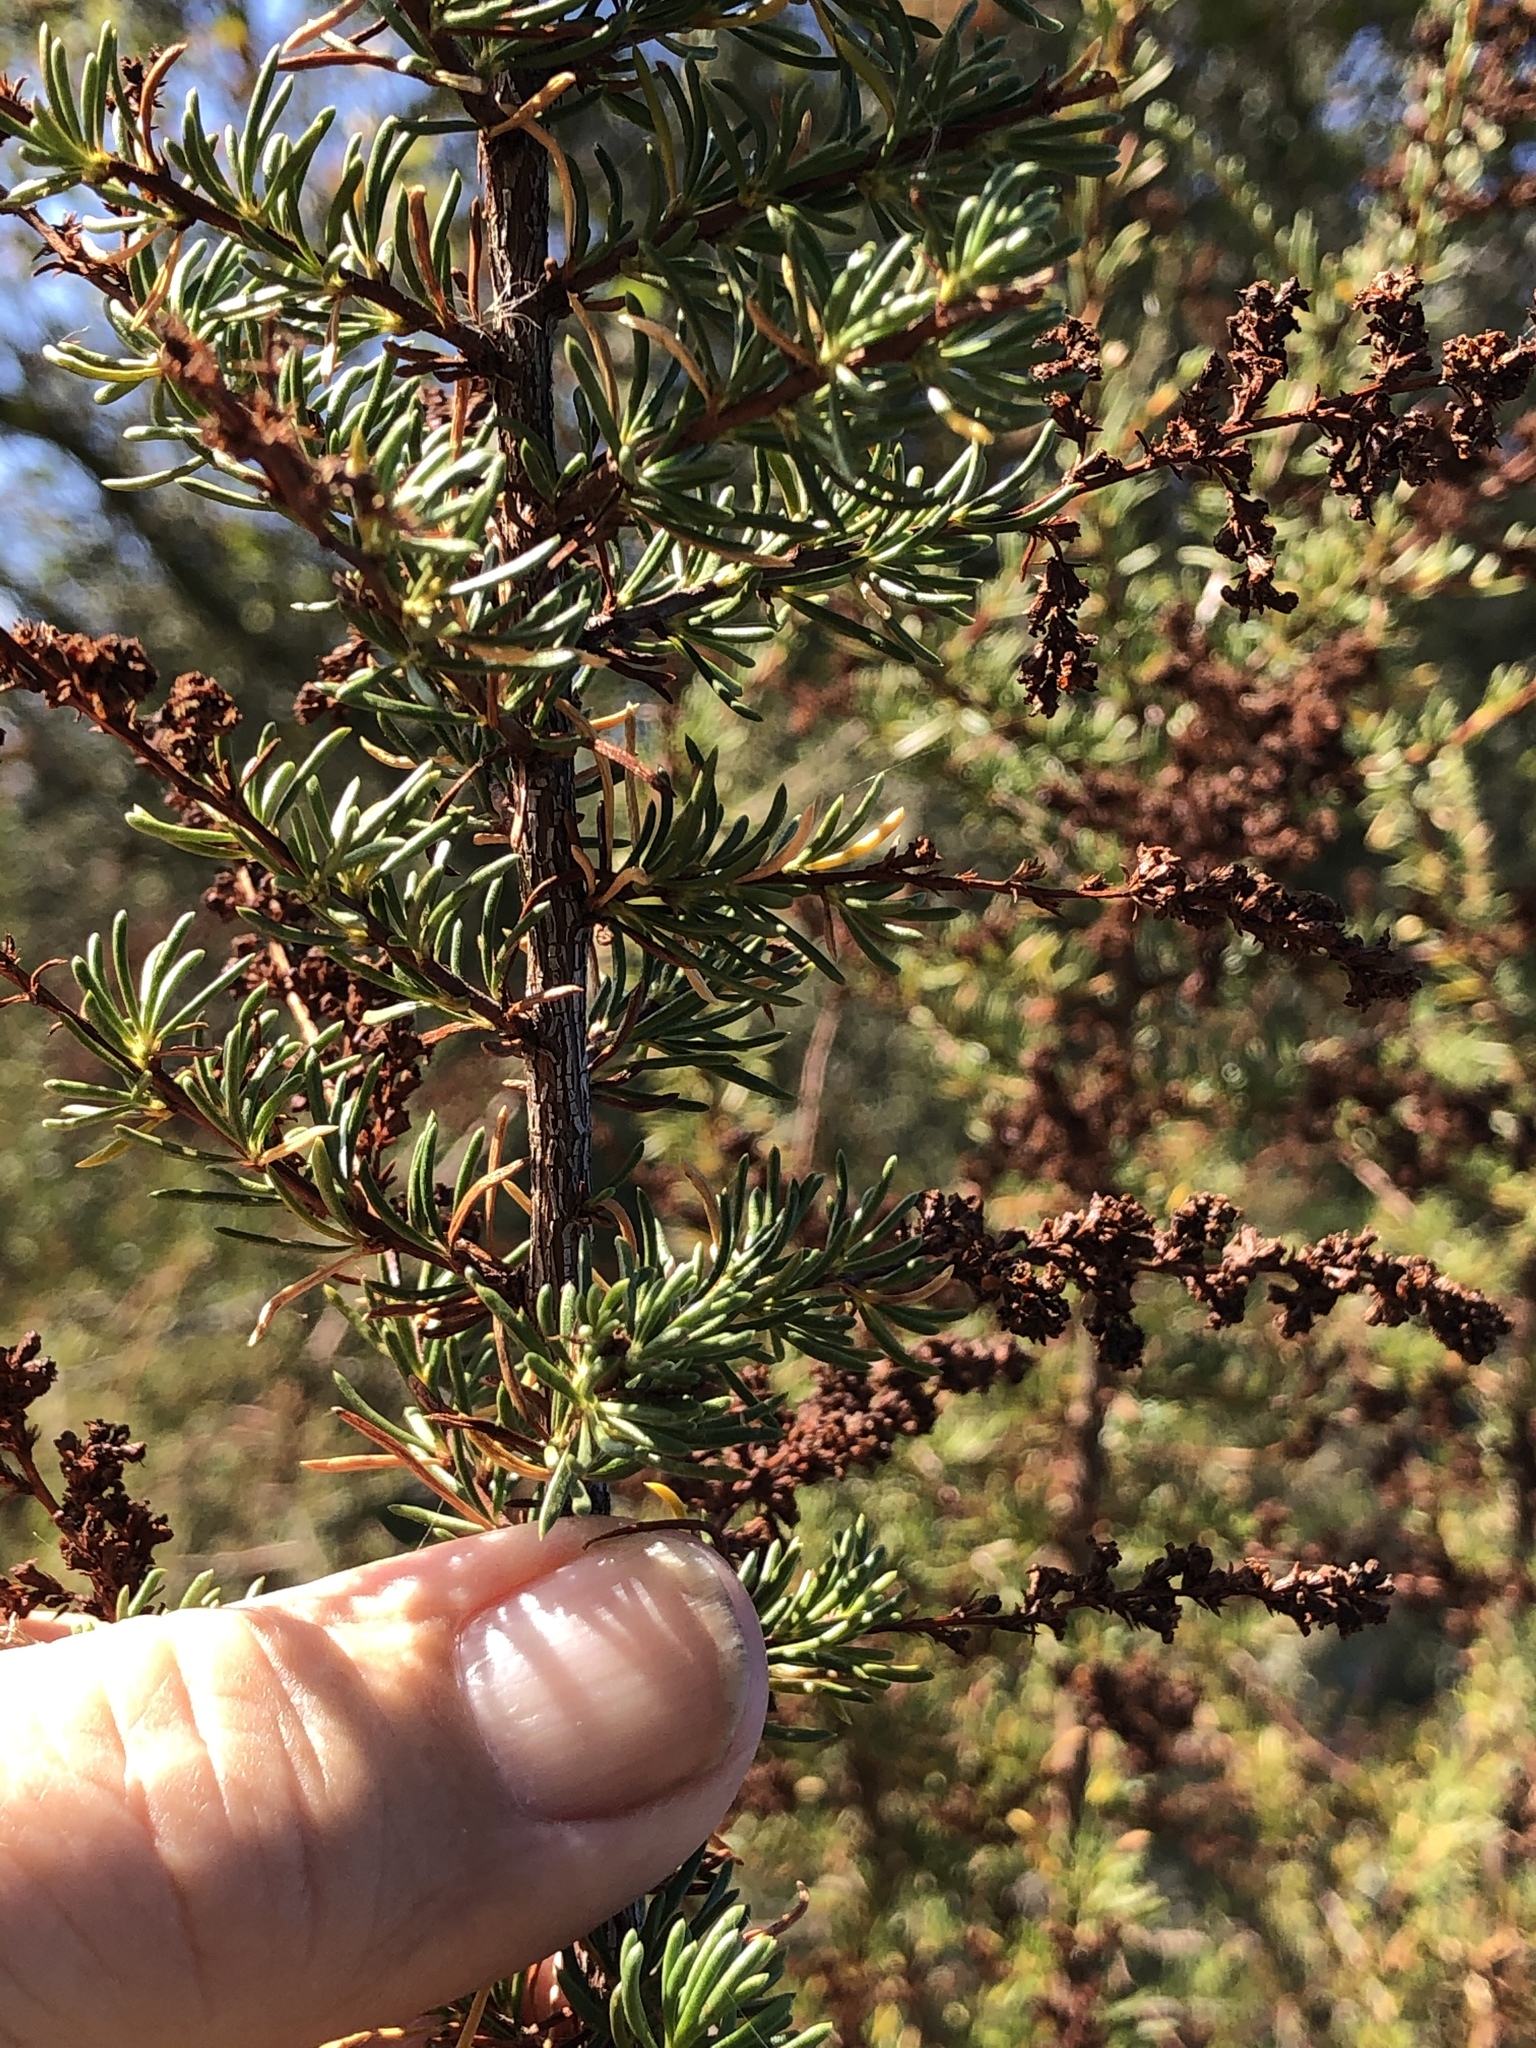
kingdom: Plantae
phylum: Tracheophyta
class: Magnoliopsida
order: Rosales
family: Rosaceae
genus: Adenostoma
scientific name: Adenostoma fasciculatum
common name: Chamise
